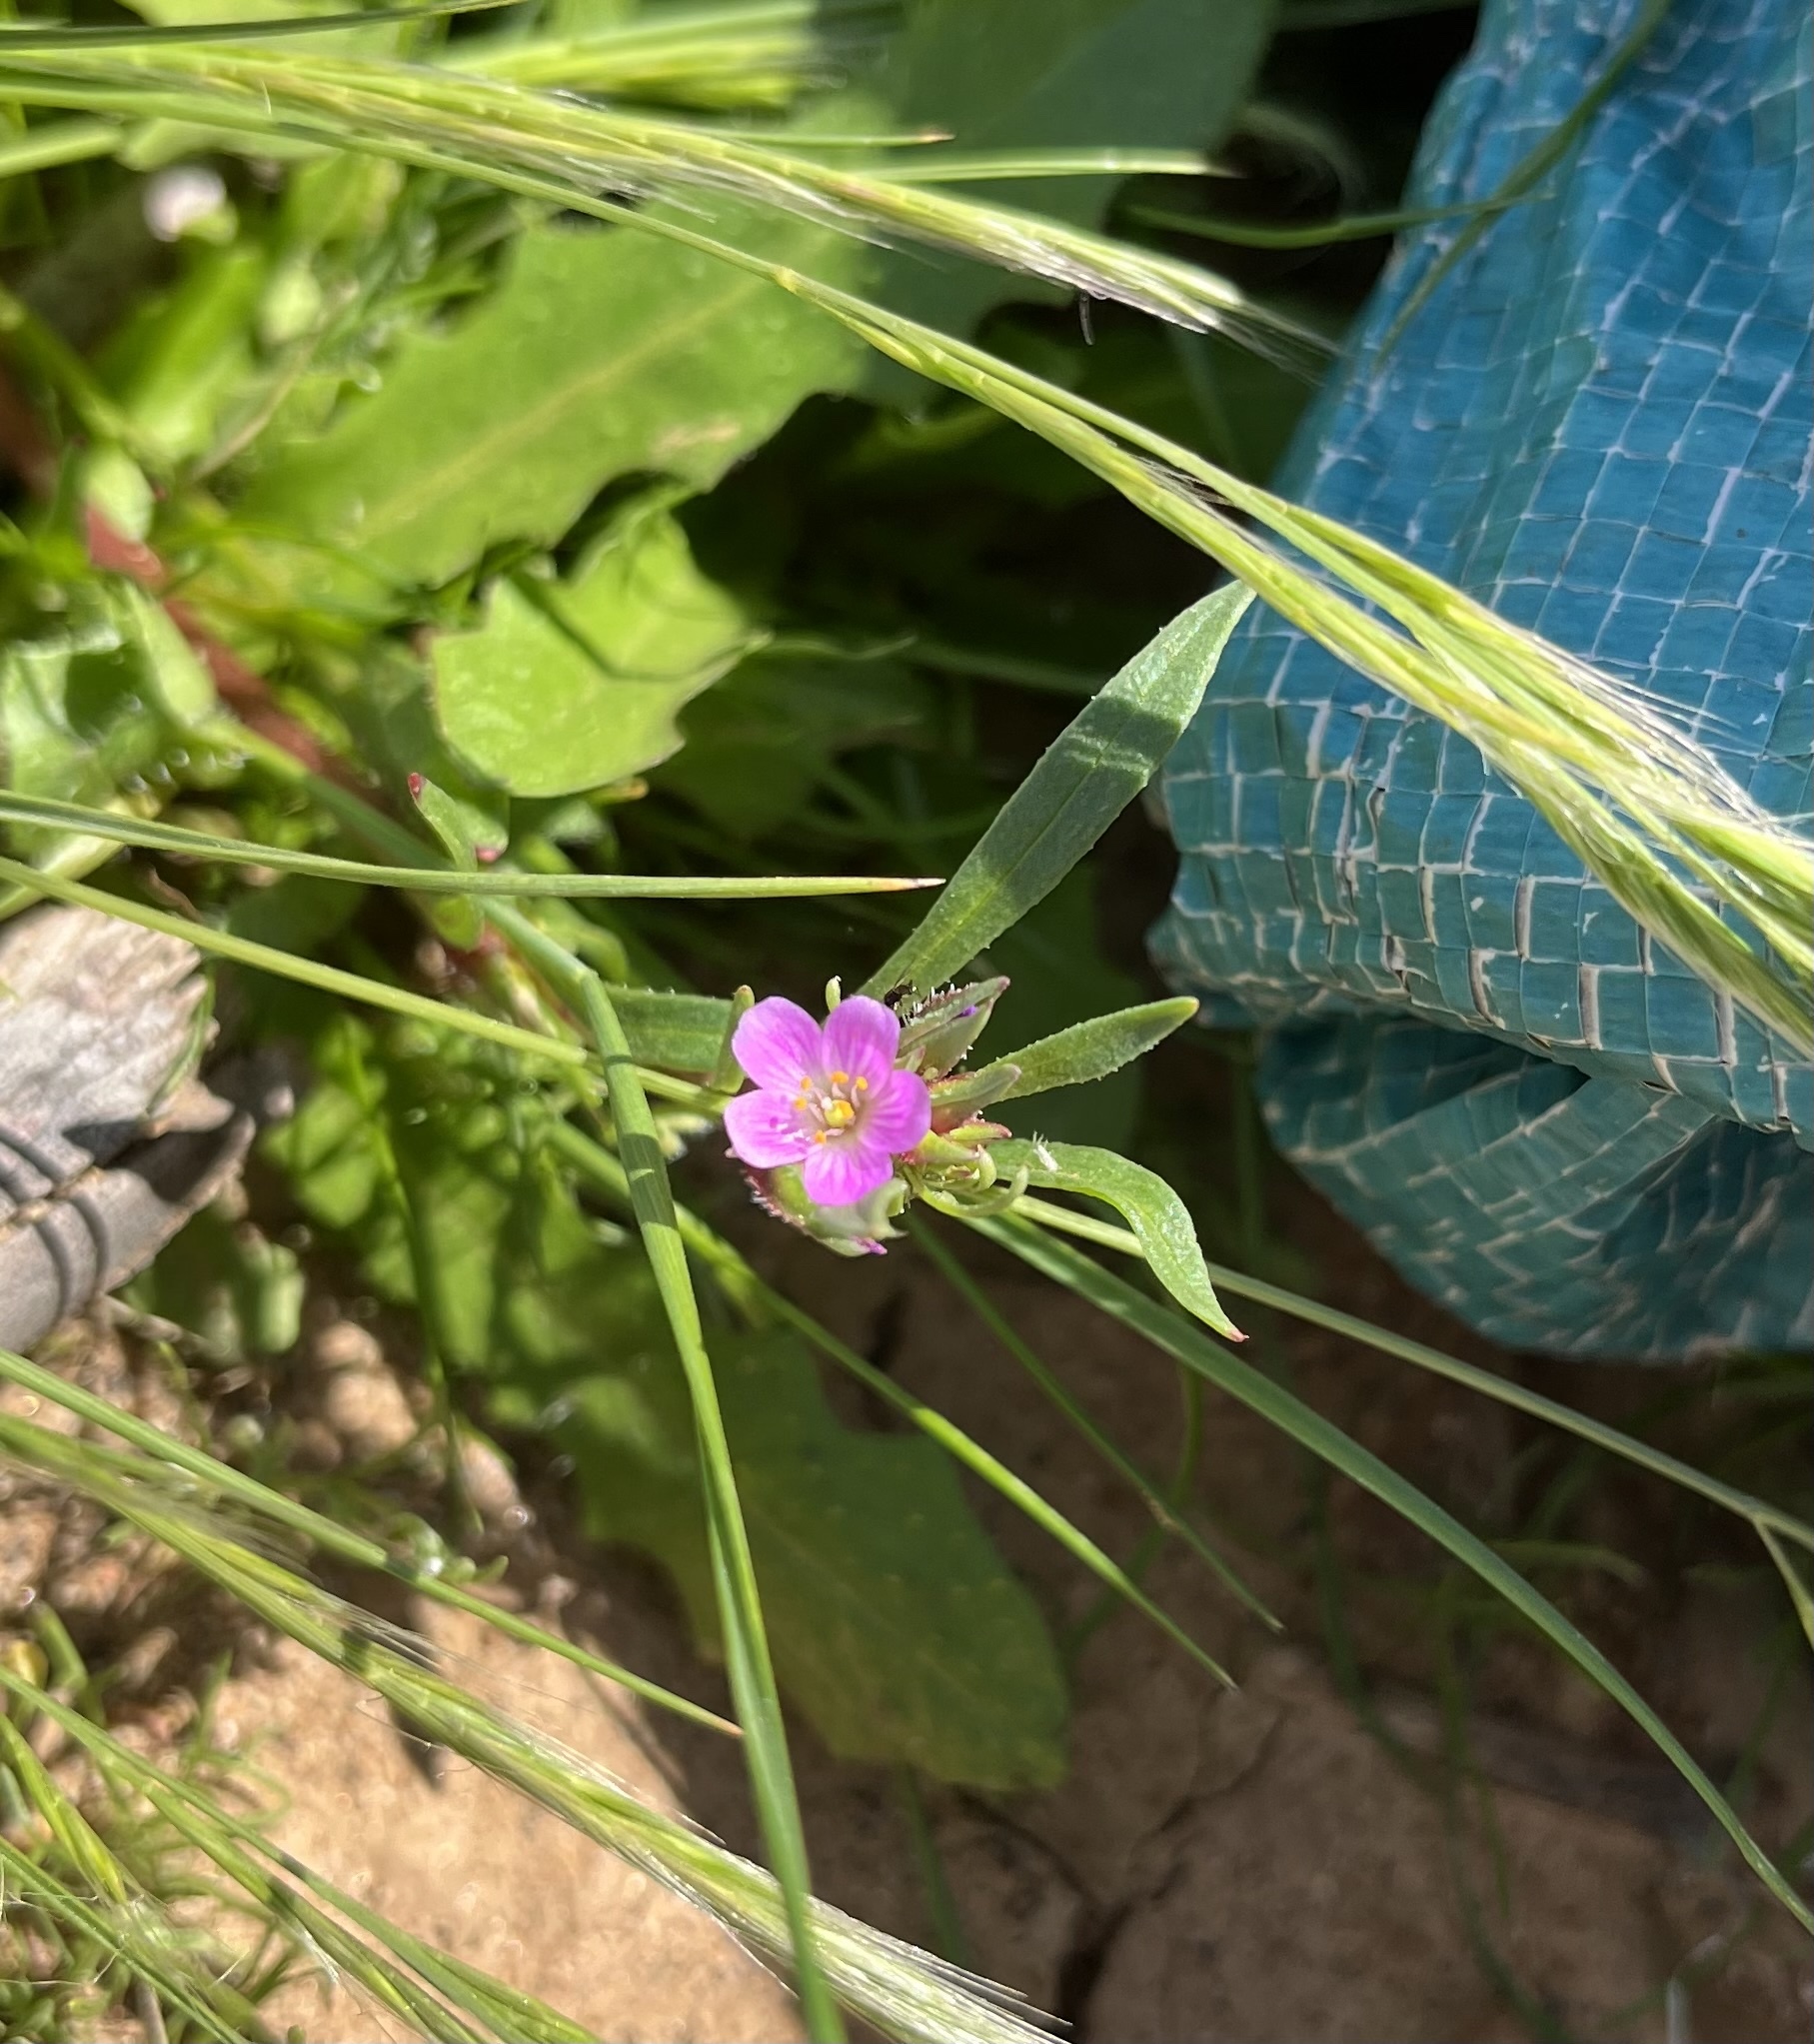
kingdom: Plantae
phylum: Tracheophyta
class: Magnoliopsida
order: Caryophyllales
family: Montiaceae
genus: Calandrinia
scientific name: Calandrinia menziesii
